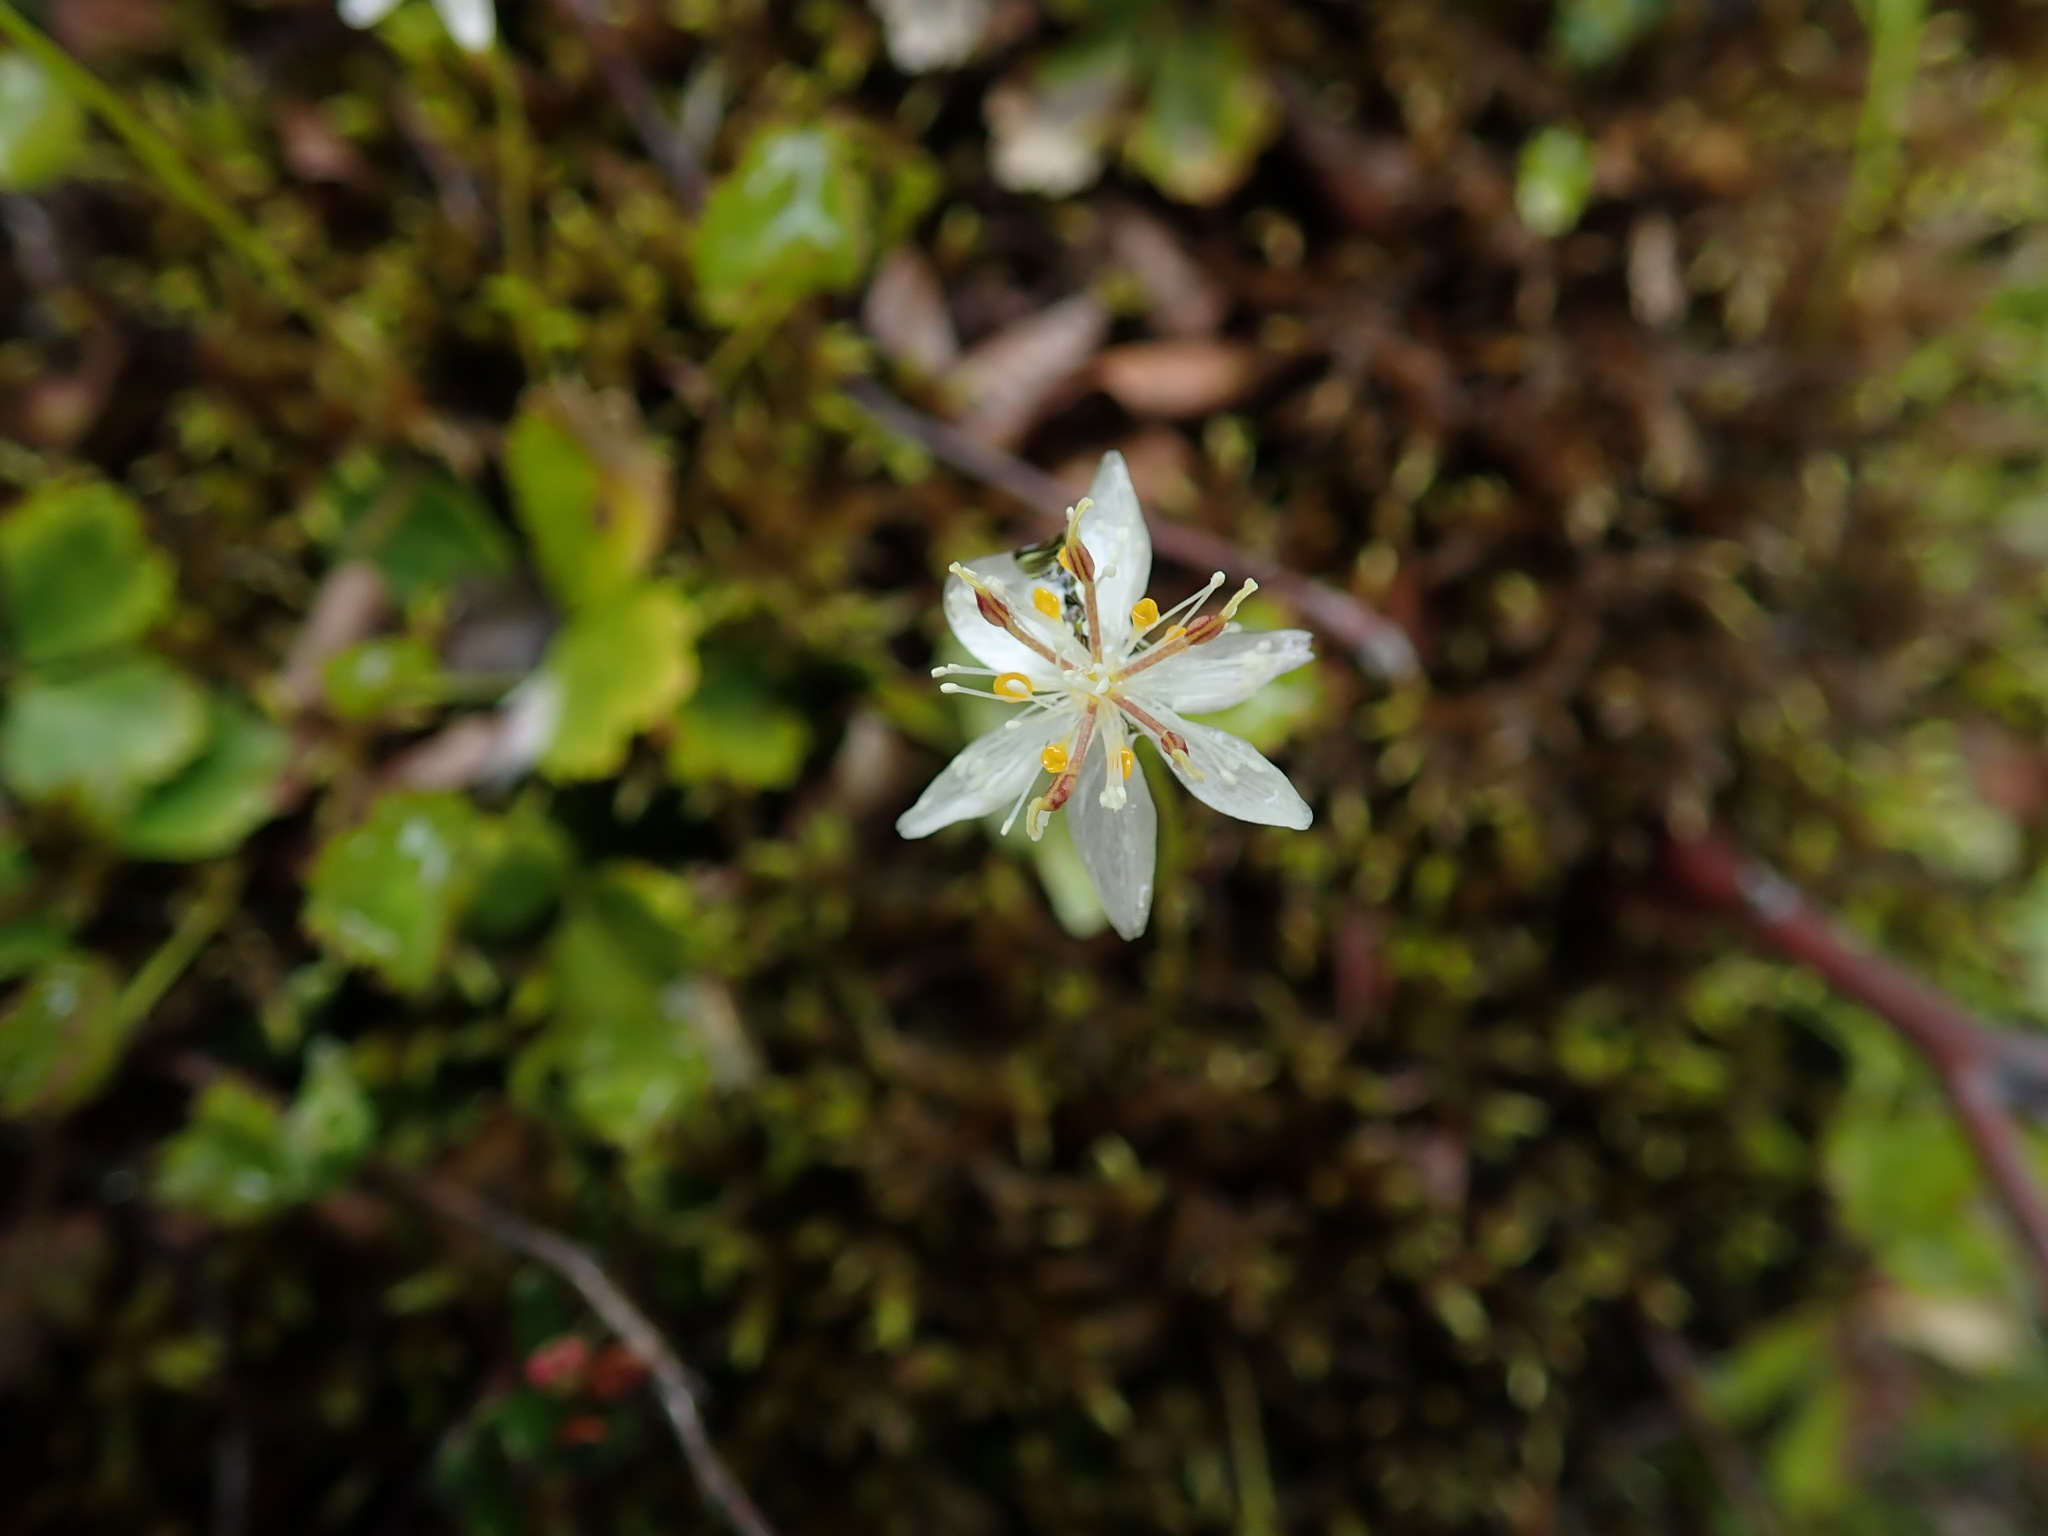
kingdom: Plantae
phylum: Tracheophyta
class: Magnoliopsida
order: Ranunculales
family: Ranunculaceae
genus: Coptis
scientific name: Coptis trifolia
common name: Canker-root
